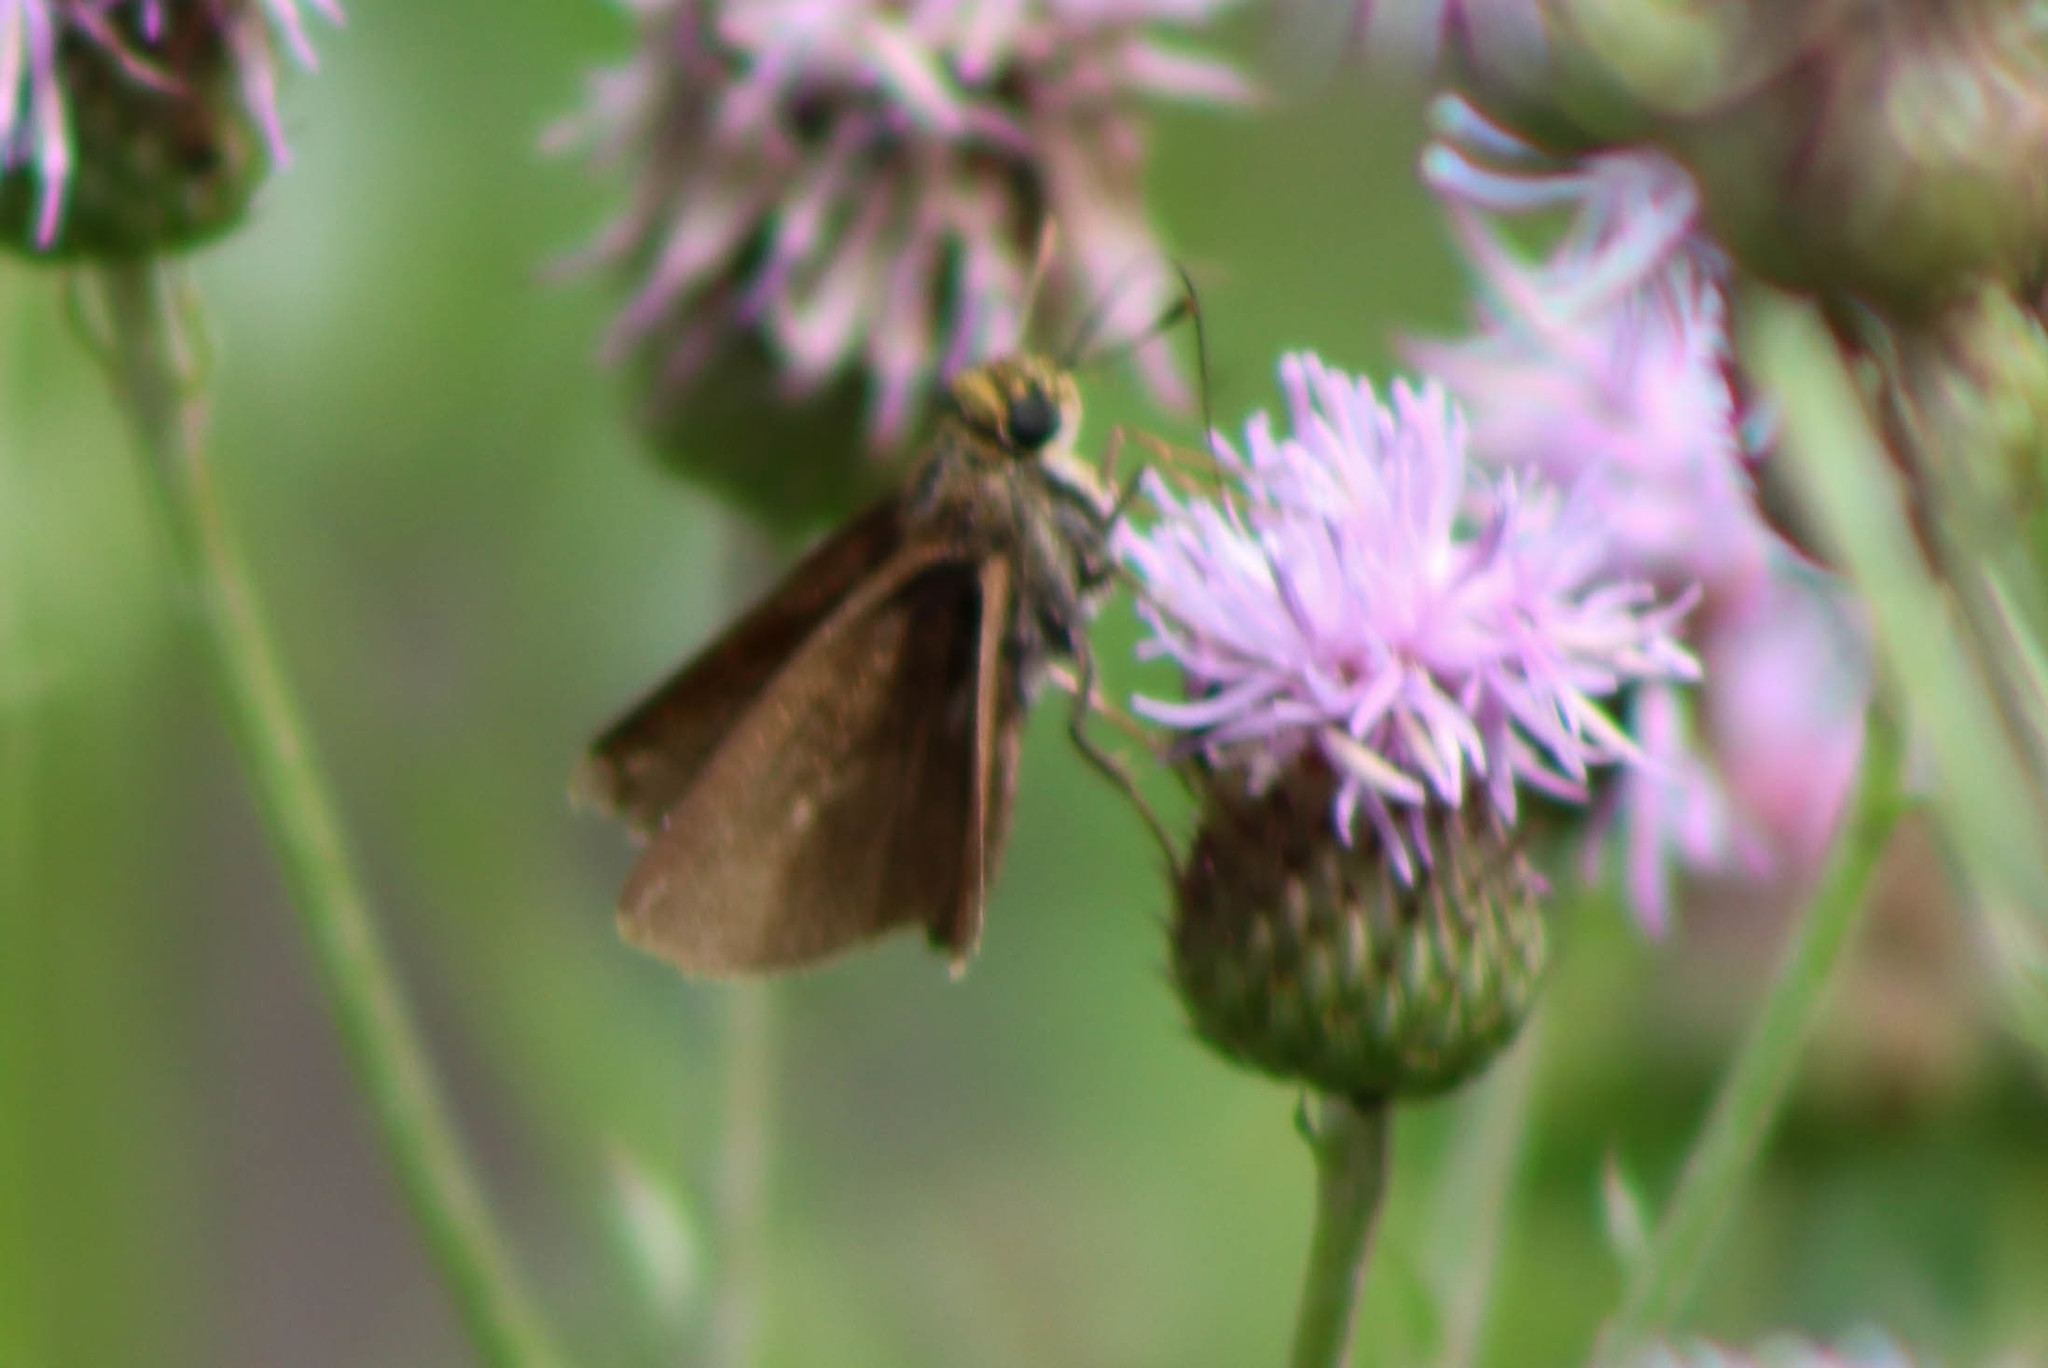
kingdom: Animalia
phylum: Arthropoda
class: Insecta
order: Lepidoptera
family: Hesperiidae
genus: Euphyes
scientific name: Euphyes vestris
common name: Dun skipper
